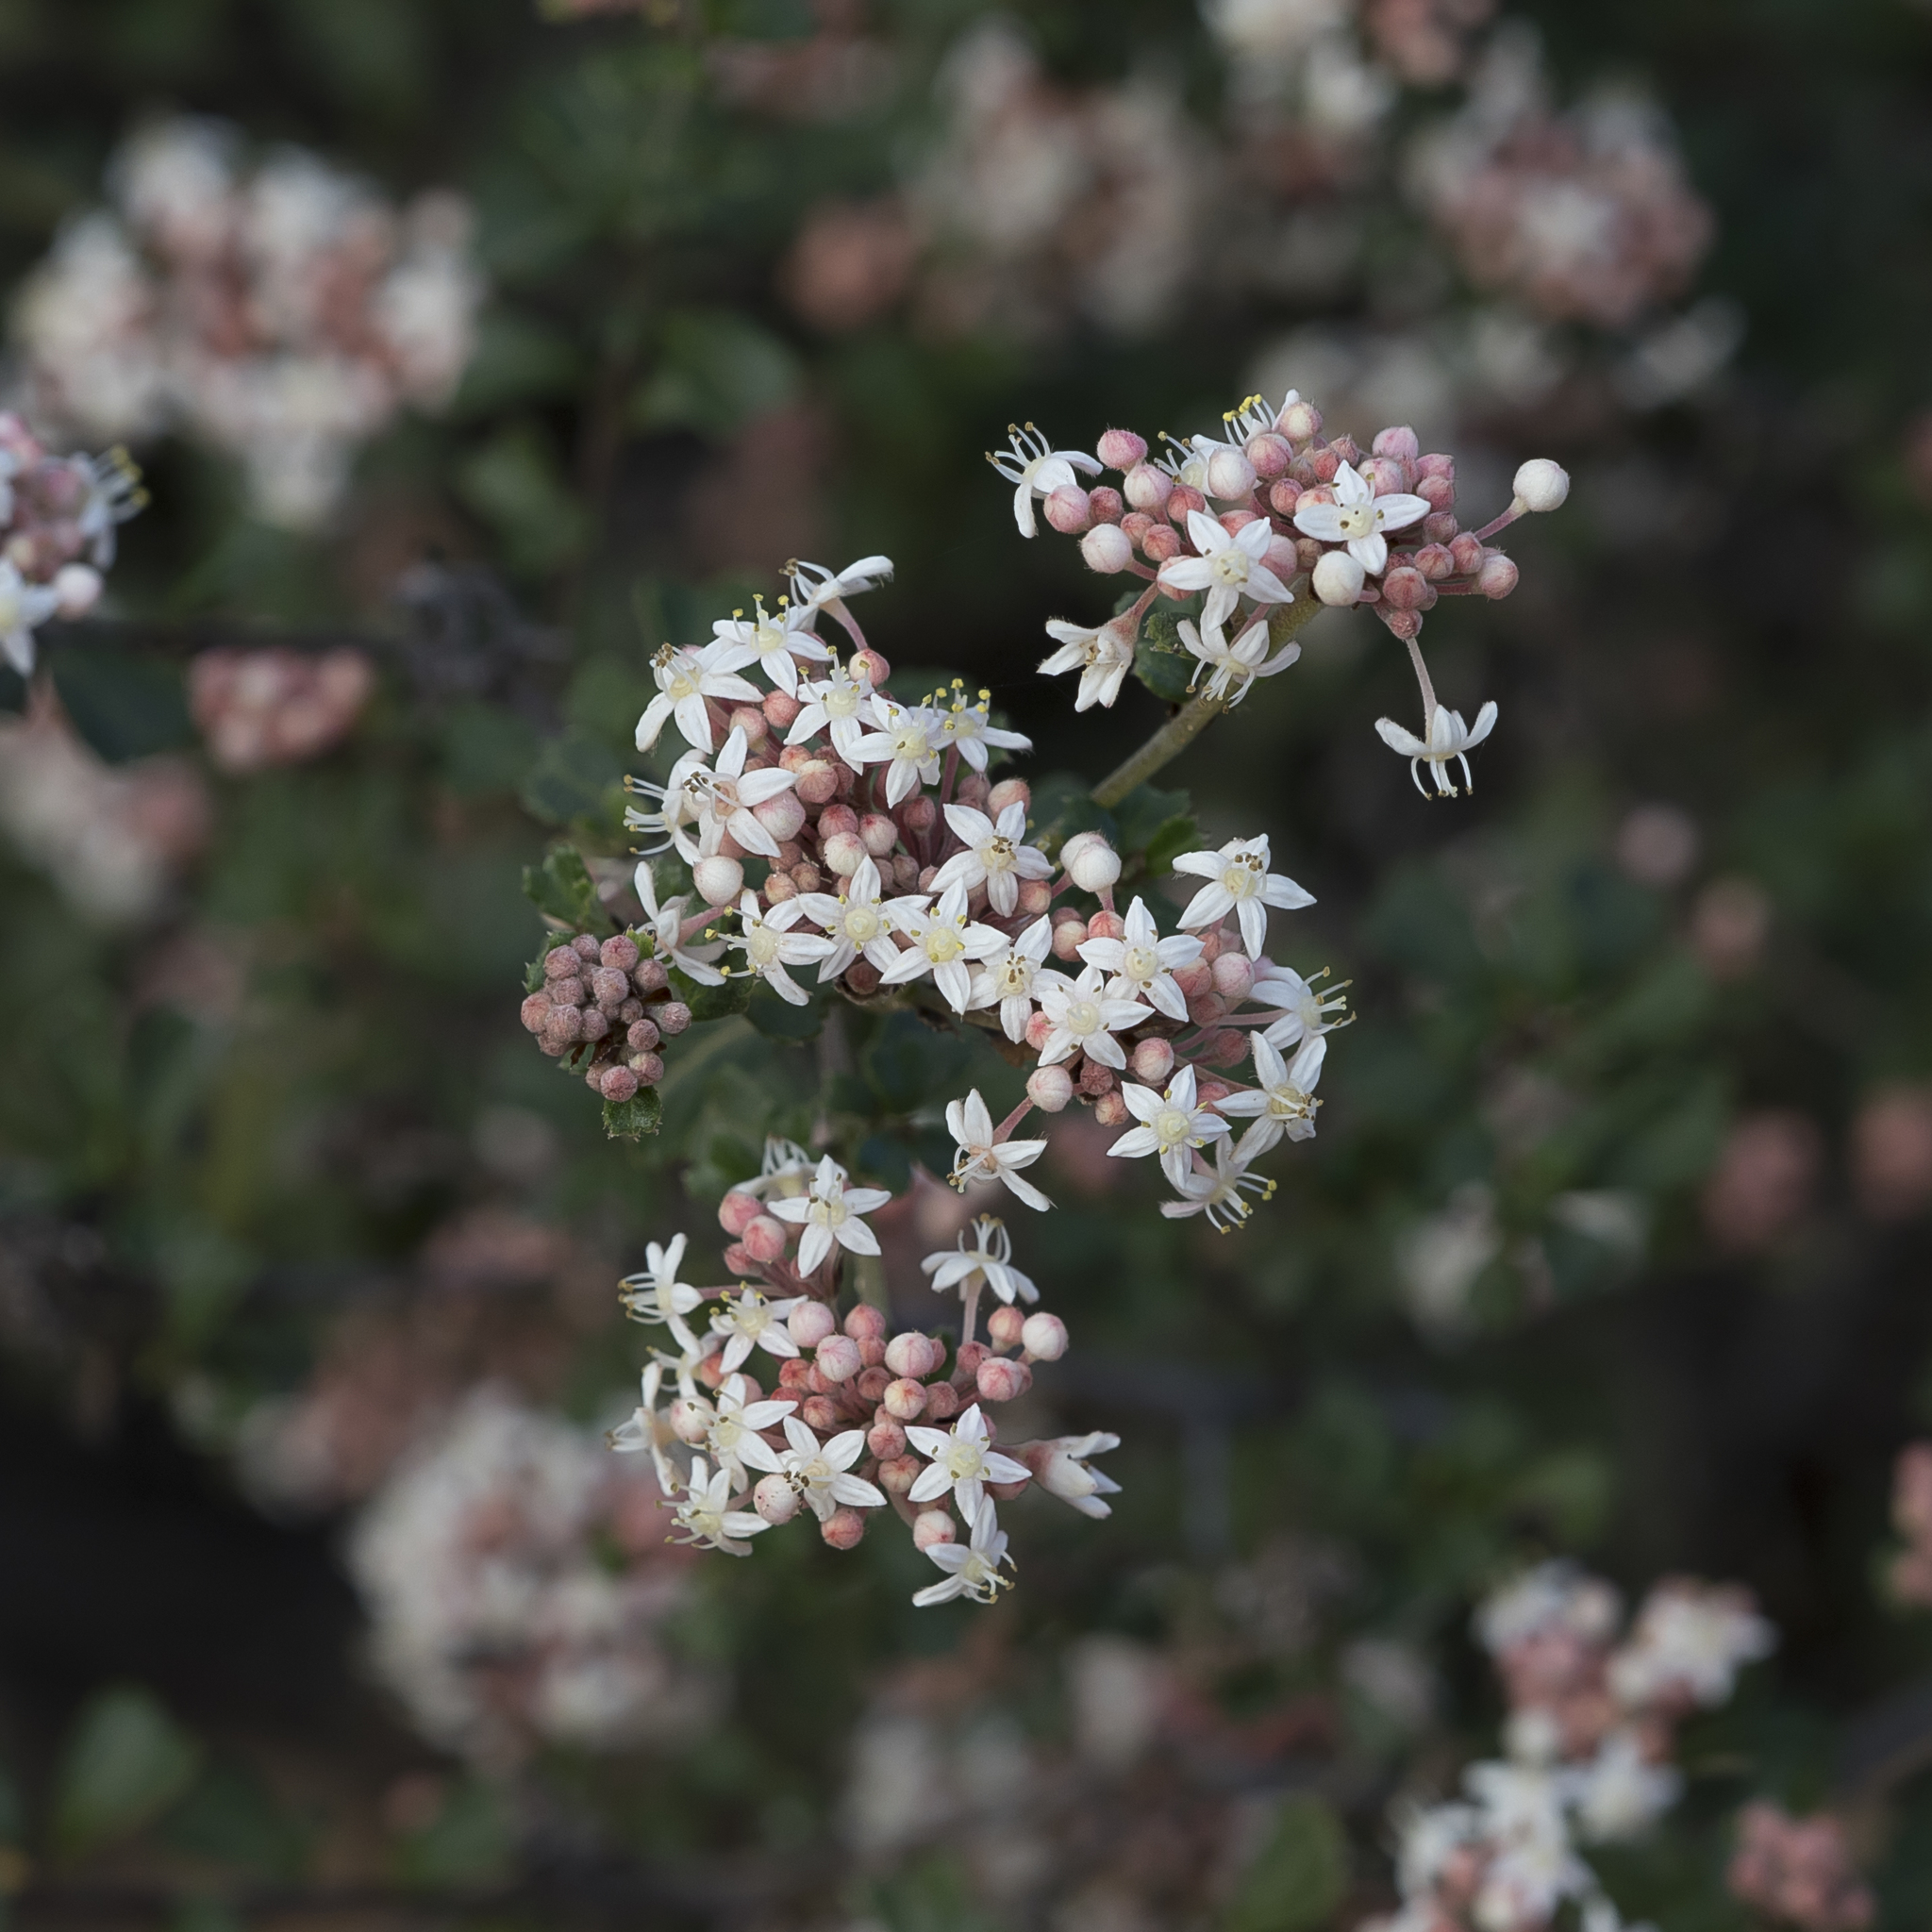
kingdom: Plantae
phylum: Tracheophyta
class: Magnoliopsida
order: Rosales
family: Rhamnaceae
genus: Pomaderris
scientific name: Pomaderris obcordata
